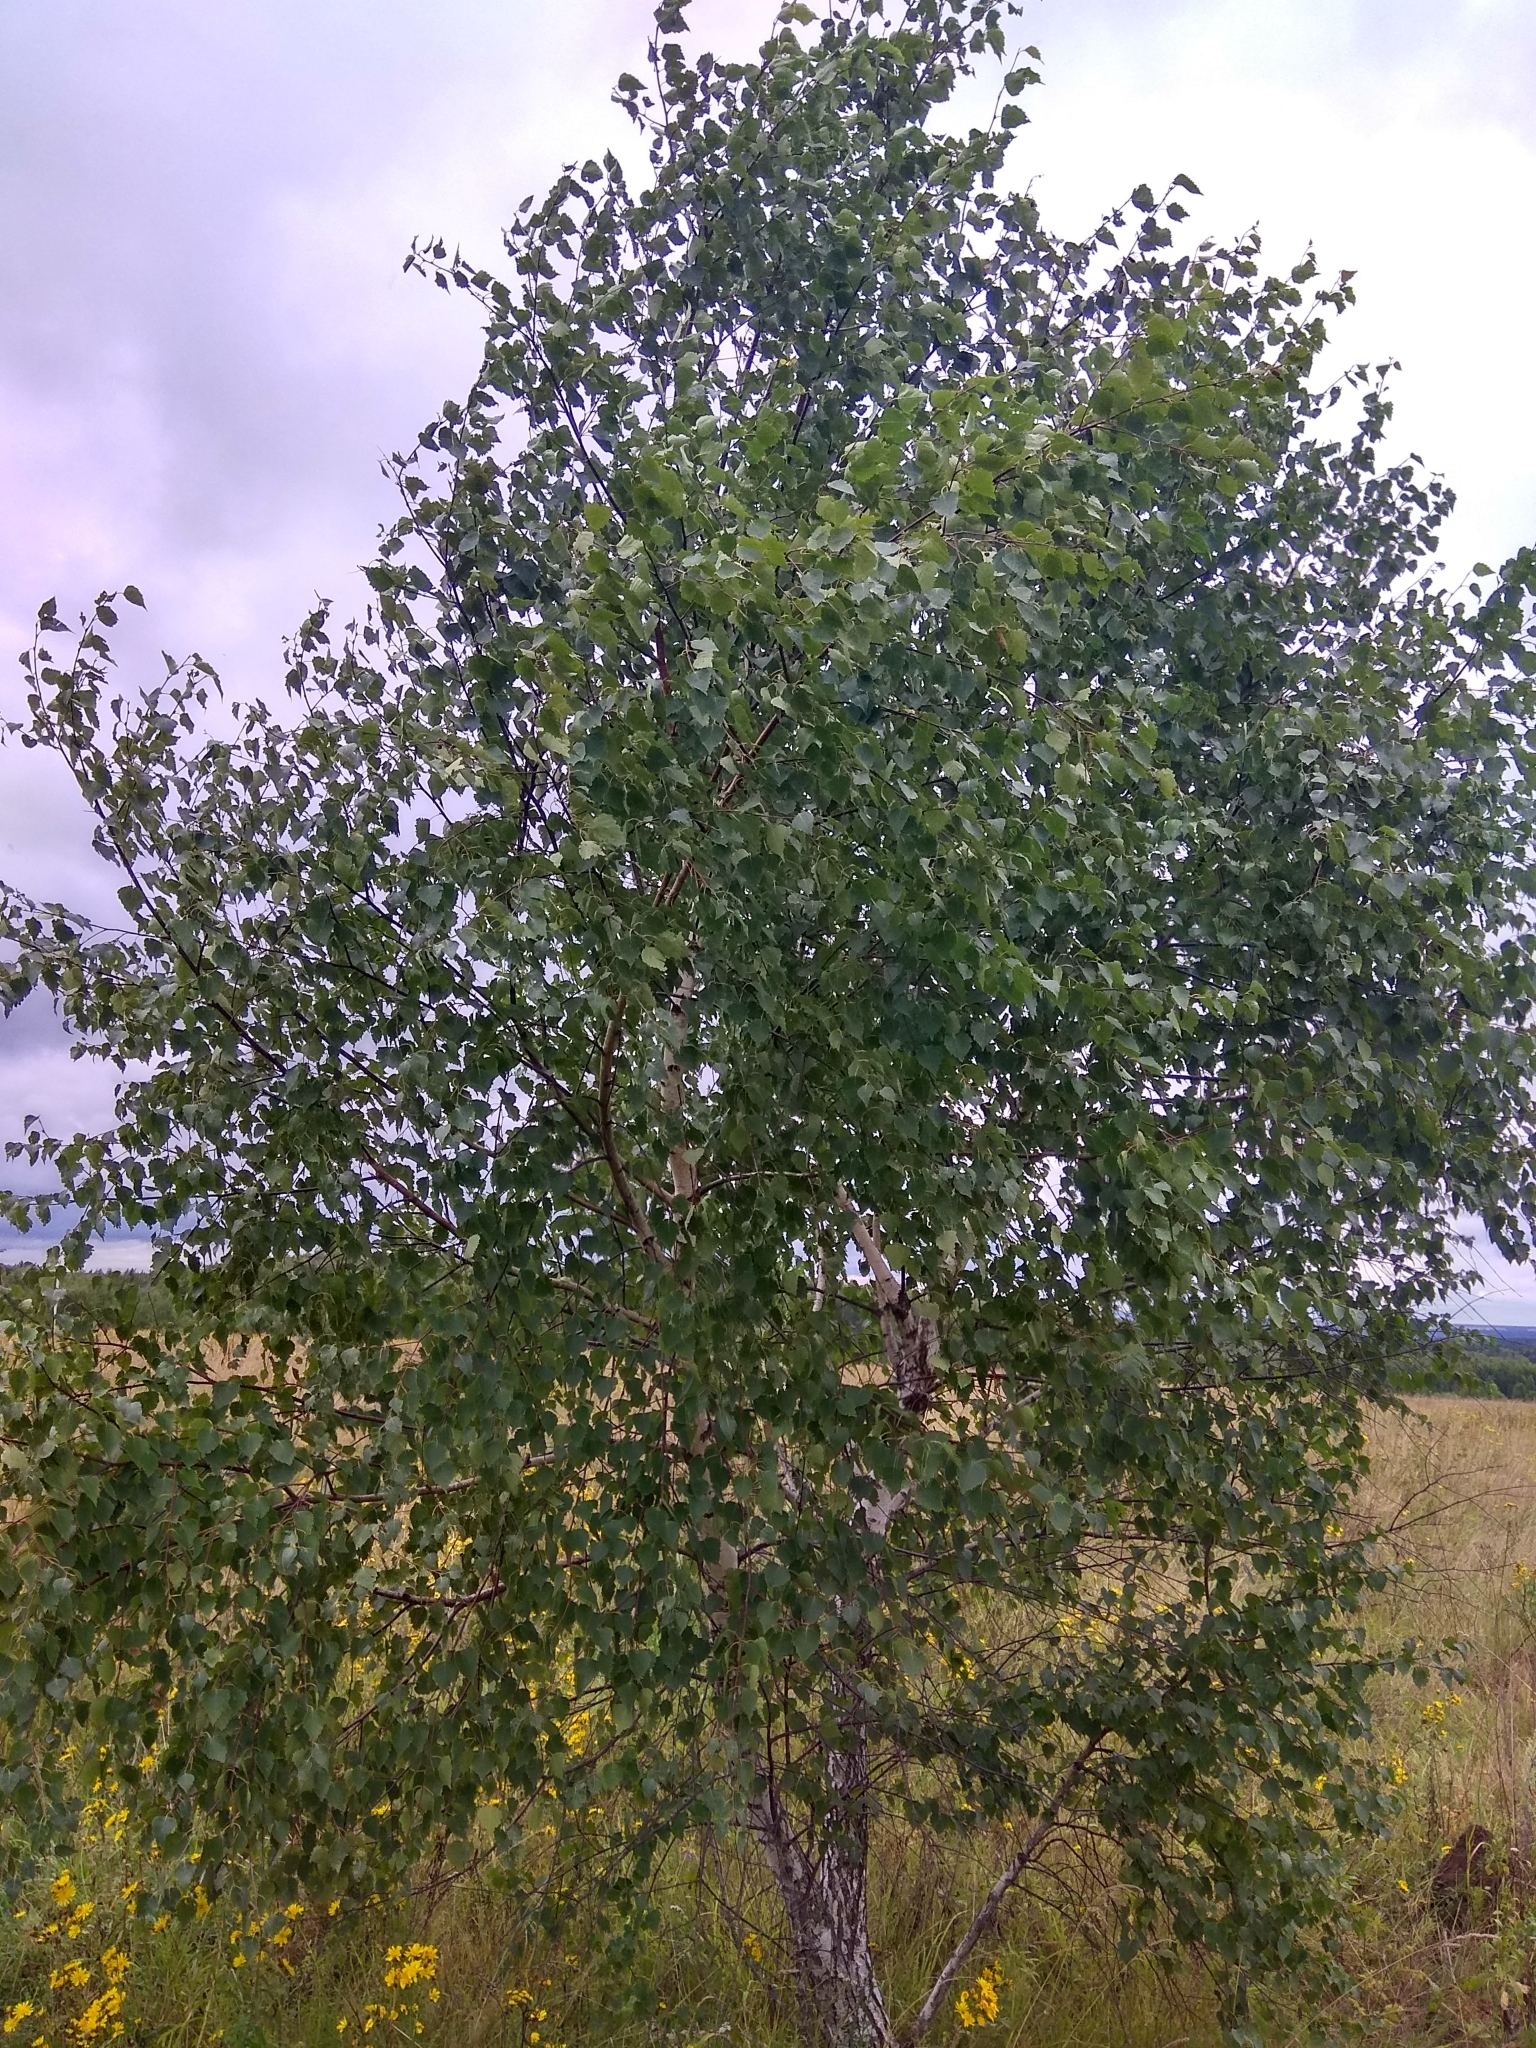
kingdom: Plantae
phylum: Tracheophyta
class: Magnoliopsida
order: Fagales
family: Betulaceae
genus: Betula
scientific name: Betula pendula
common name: Silver birch
